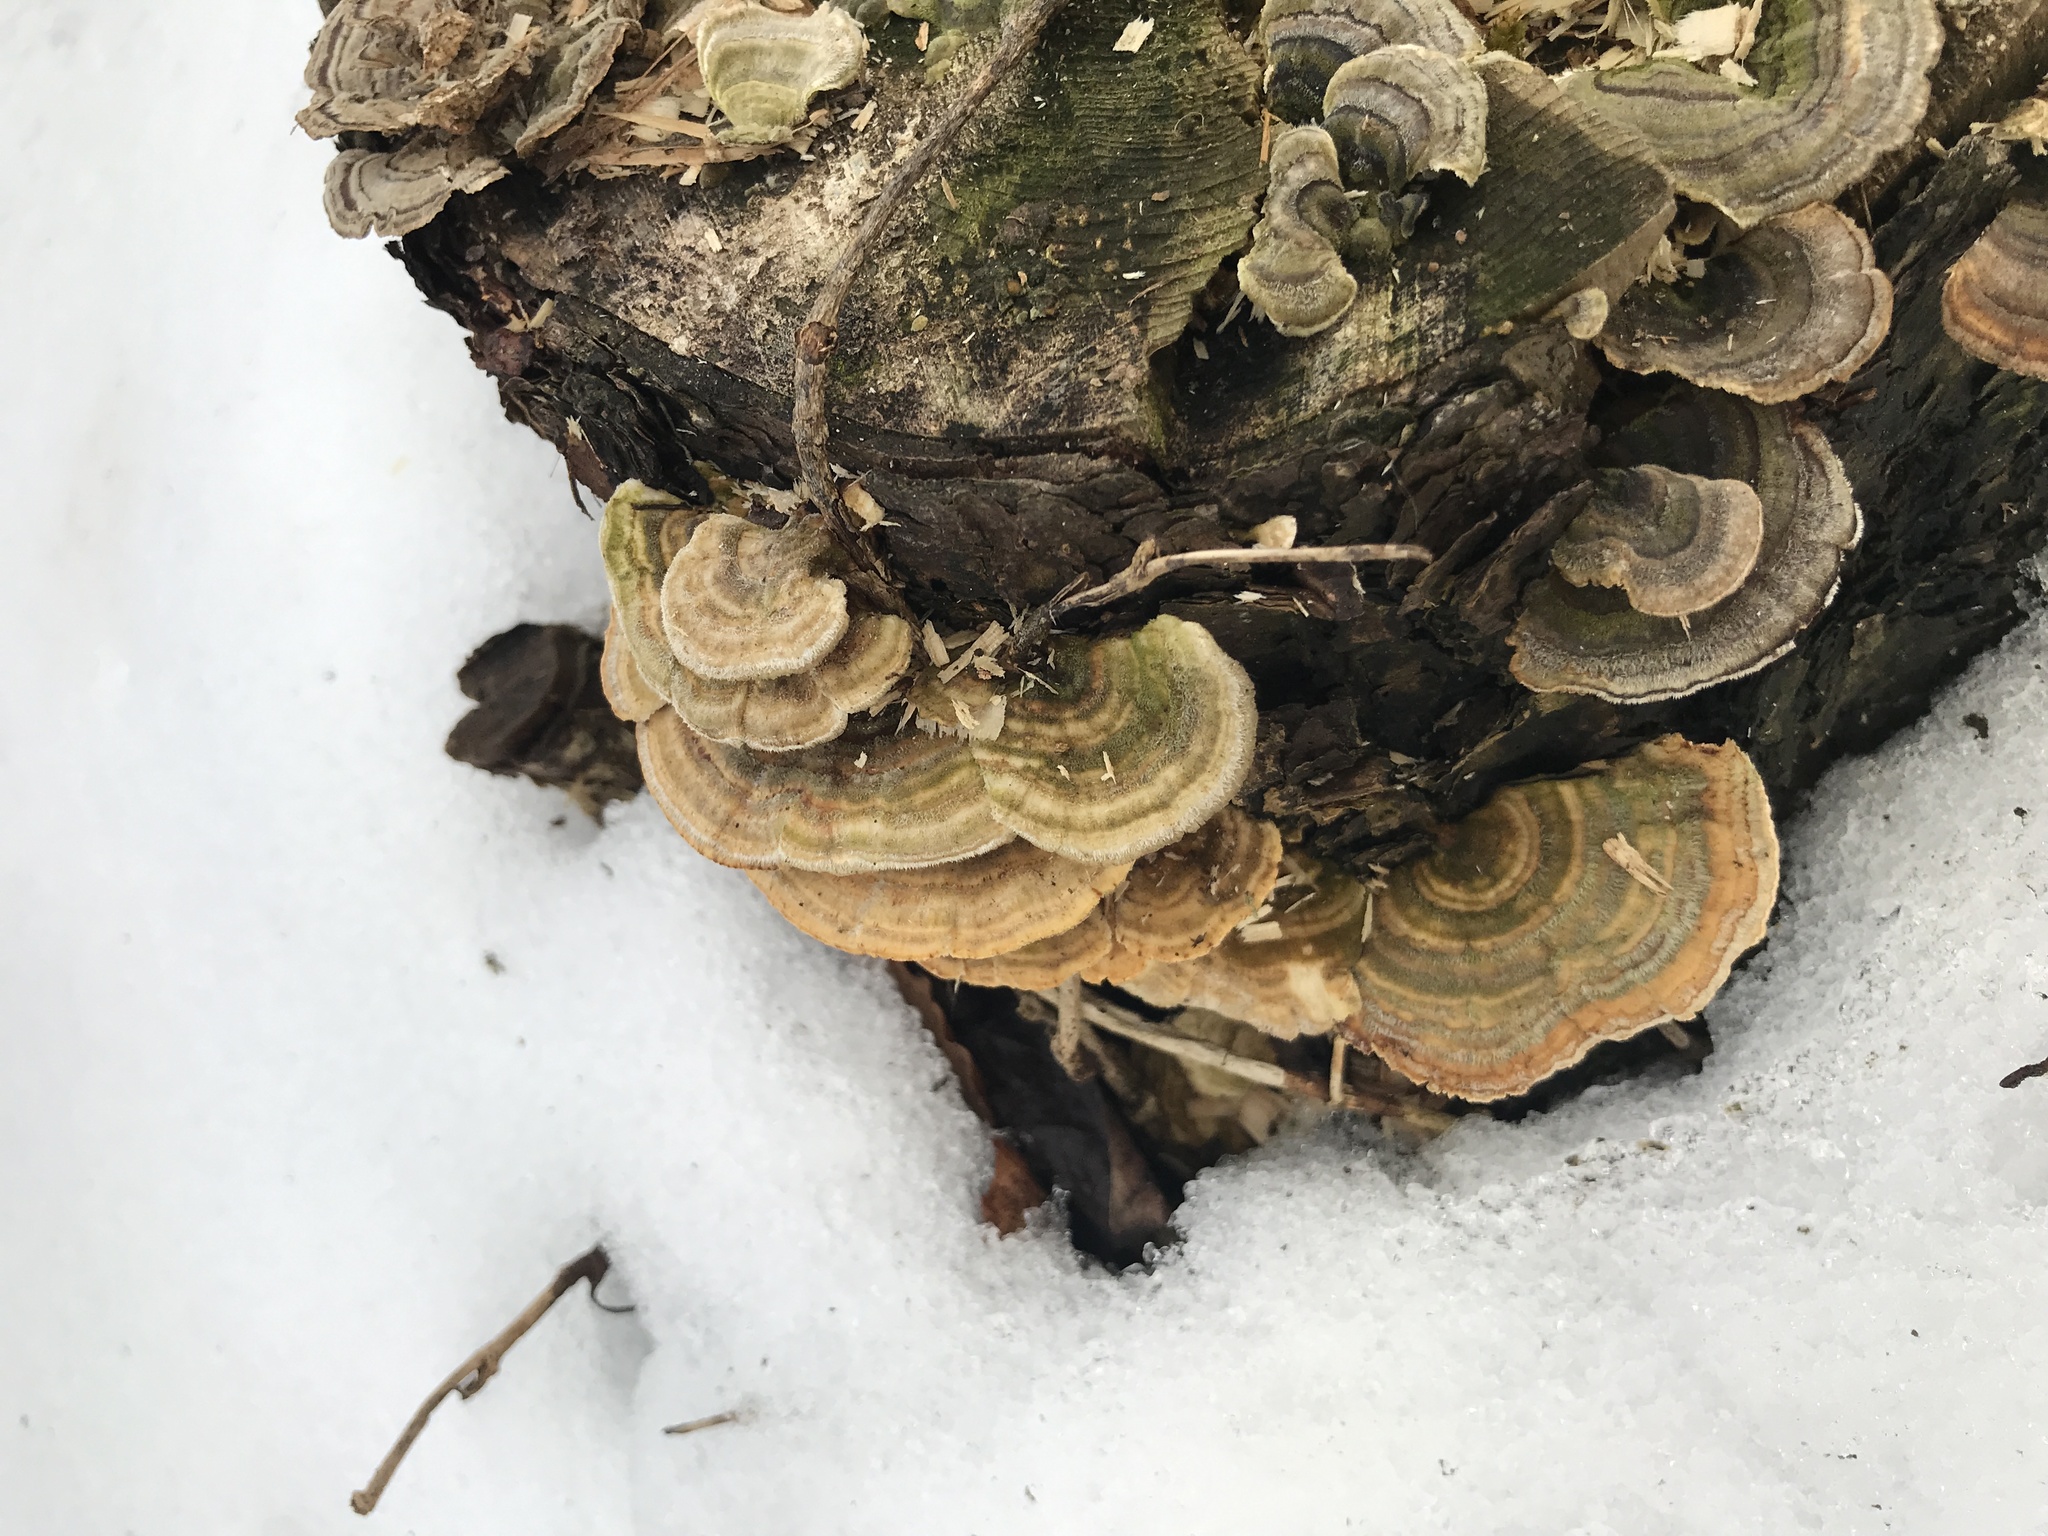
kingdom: Fungi
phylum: Basidiomycota
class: Agaricomycetes
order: Polyporales
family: Polyporaceae
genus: Trametes
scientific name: Trametes versicolor
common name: Turkeytail
